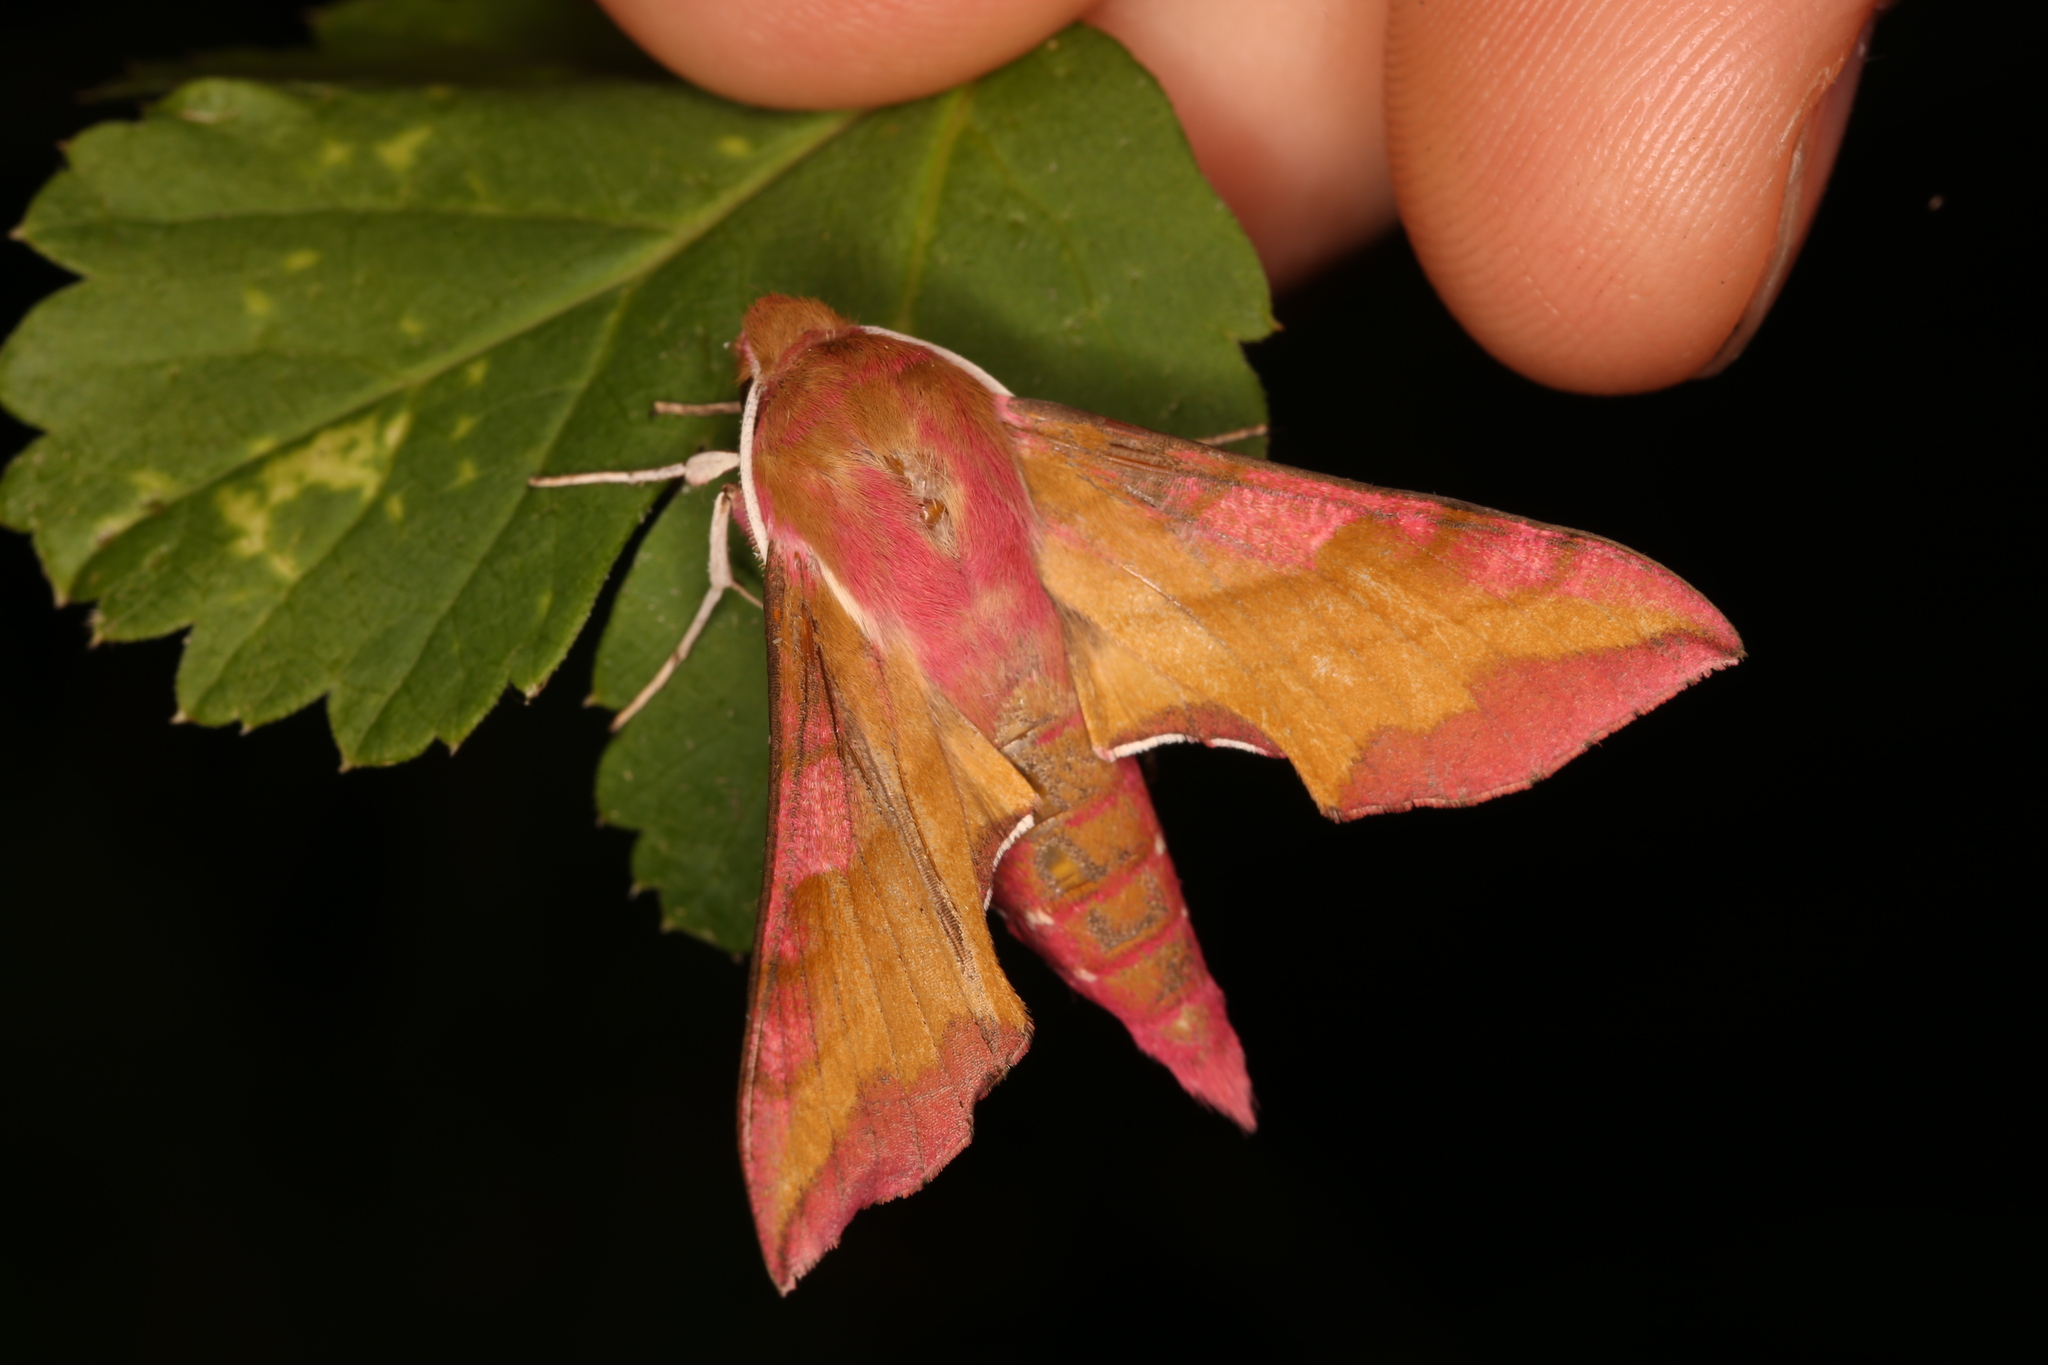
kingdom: Animalia
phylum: Arthropoda
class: Insecta
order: Lepidoptera
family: Sphingidae
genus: Deilephila
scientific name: Deilephila porcellus
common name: Small elephant hawk-moth
